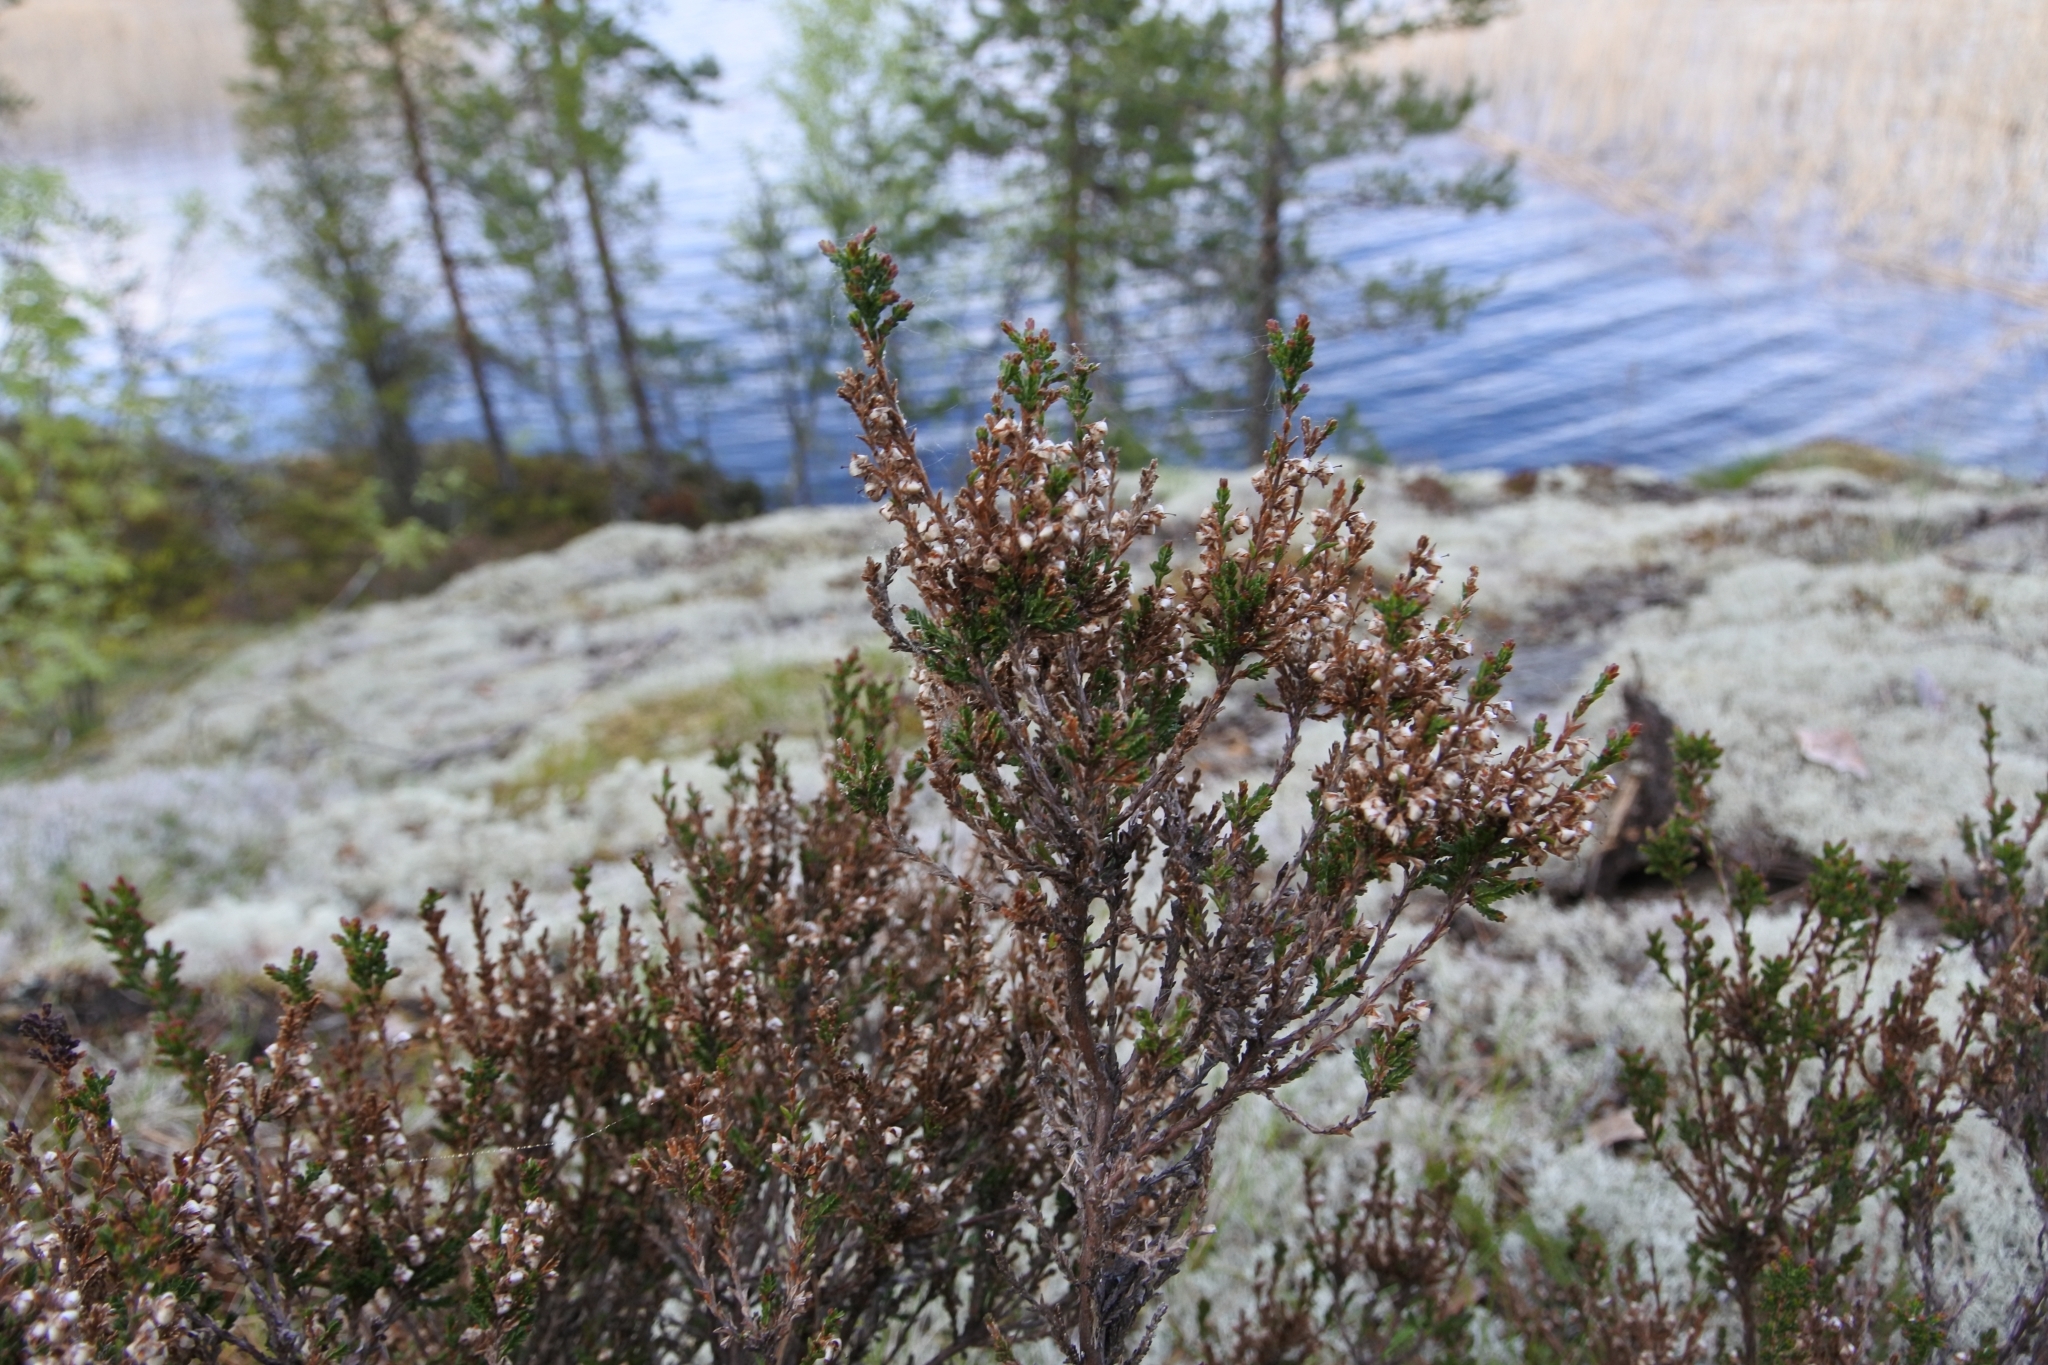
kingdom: Plantae
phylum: Tracheophyta
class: Magnoliopsida
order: Ericales
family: Ericaceae
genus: Calluna
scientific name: Calluna vulgaris
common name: Heather
